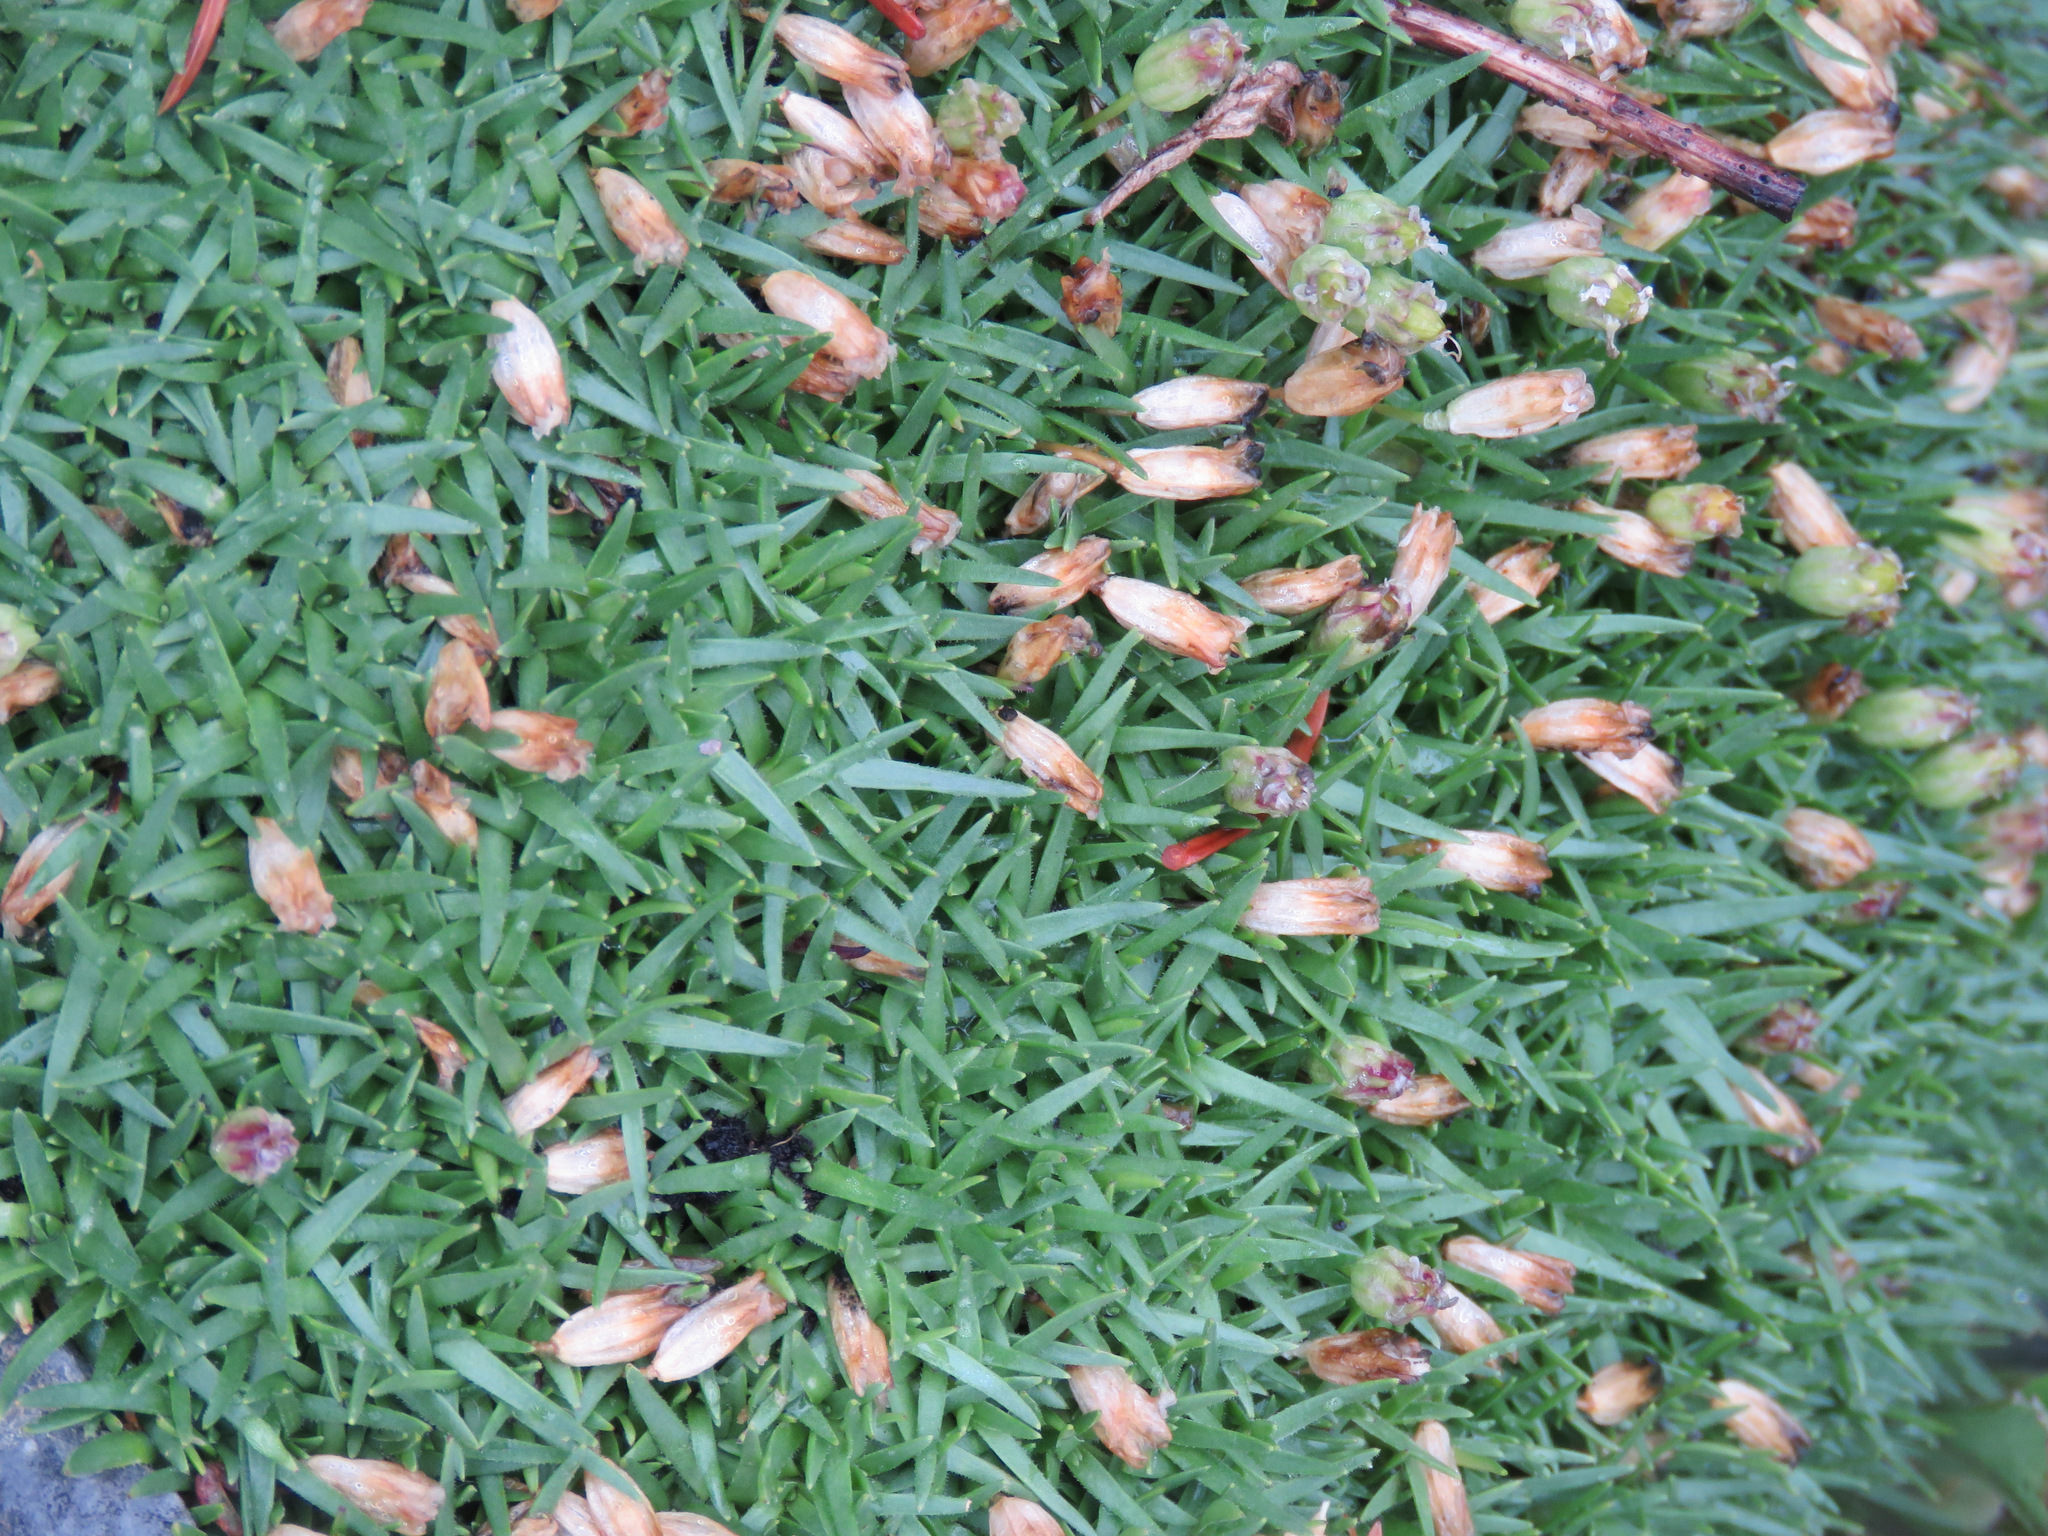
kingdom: Plantae
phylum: Tracheophyta
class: Magnoliopsida
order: Caryophyllales
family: Caryophyllaceae
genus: Silene
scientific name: Silene acaulis
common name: Moss campion
